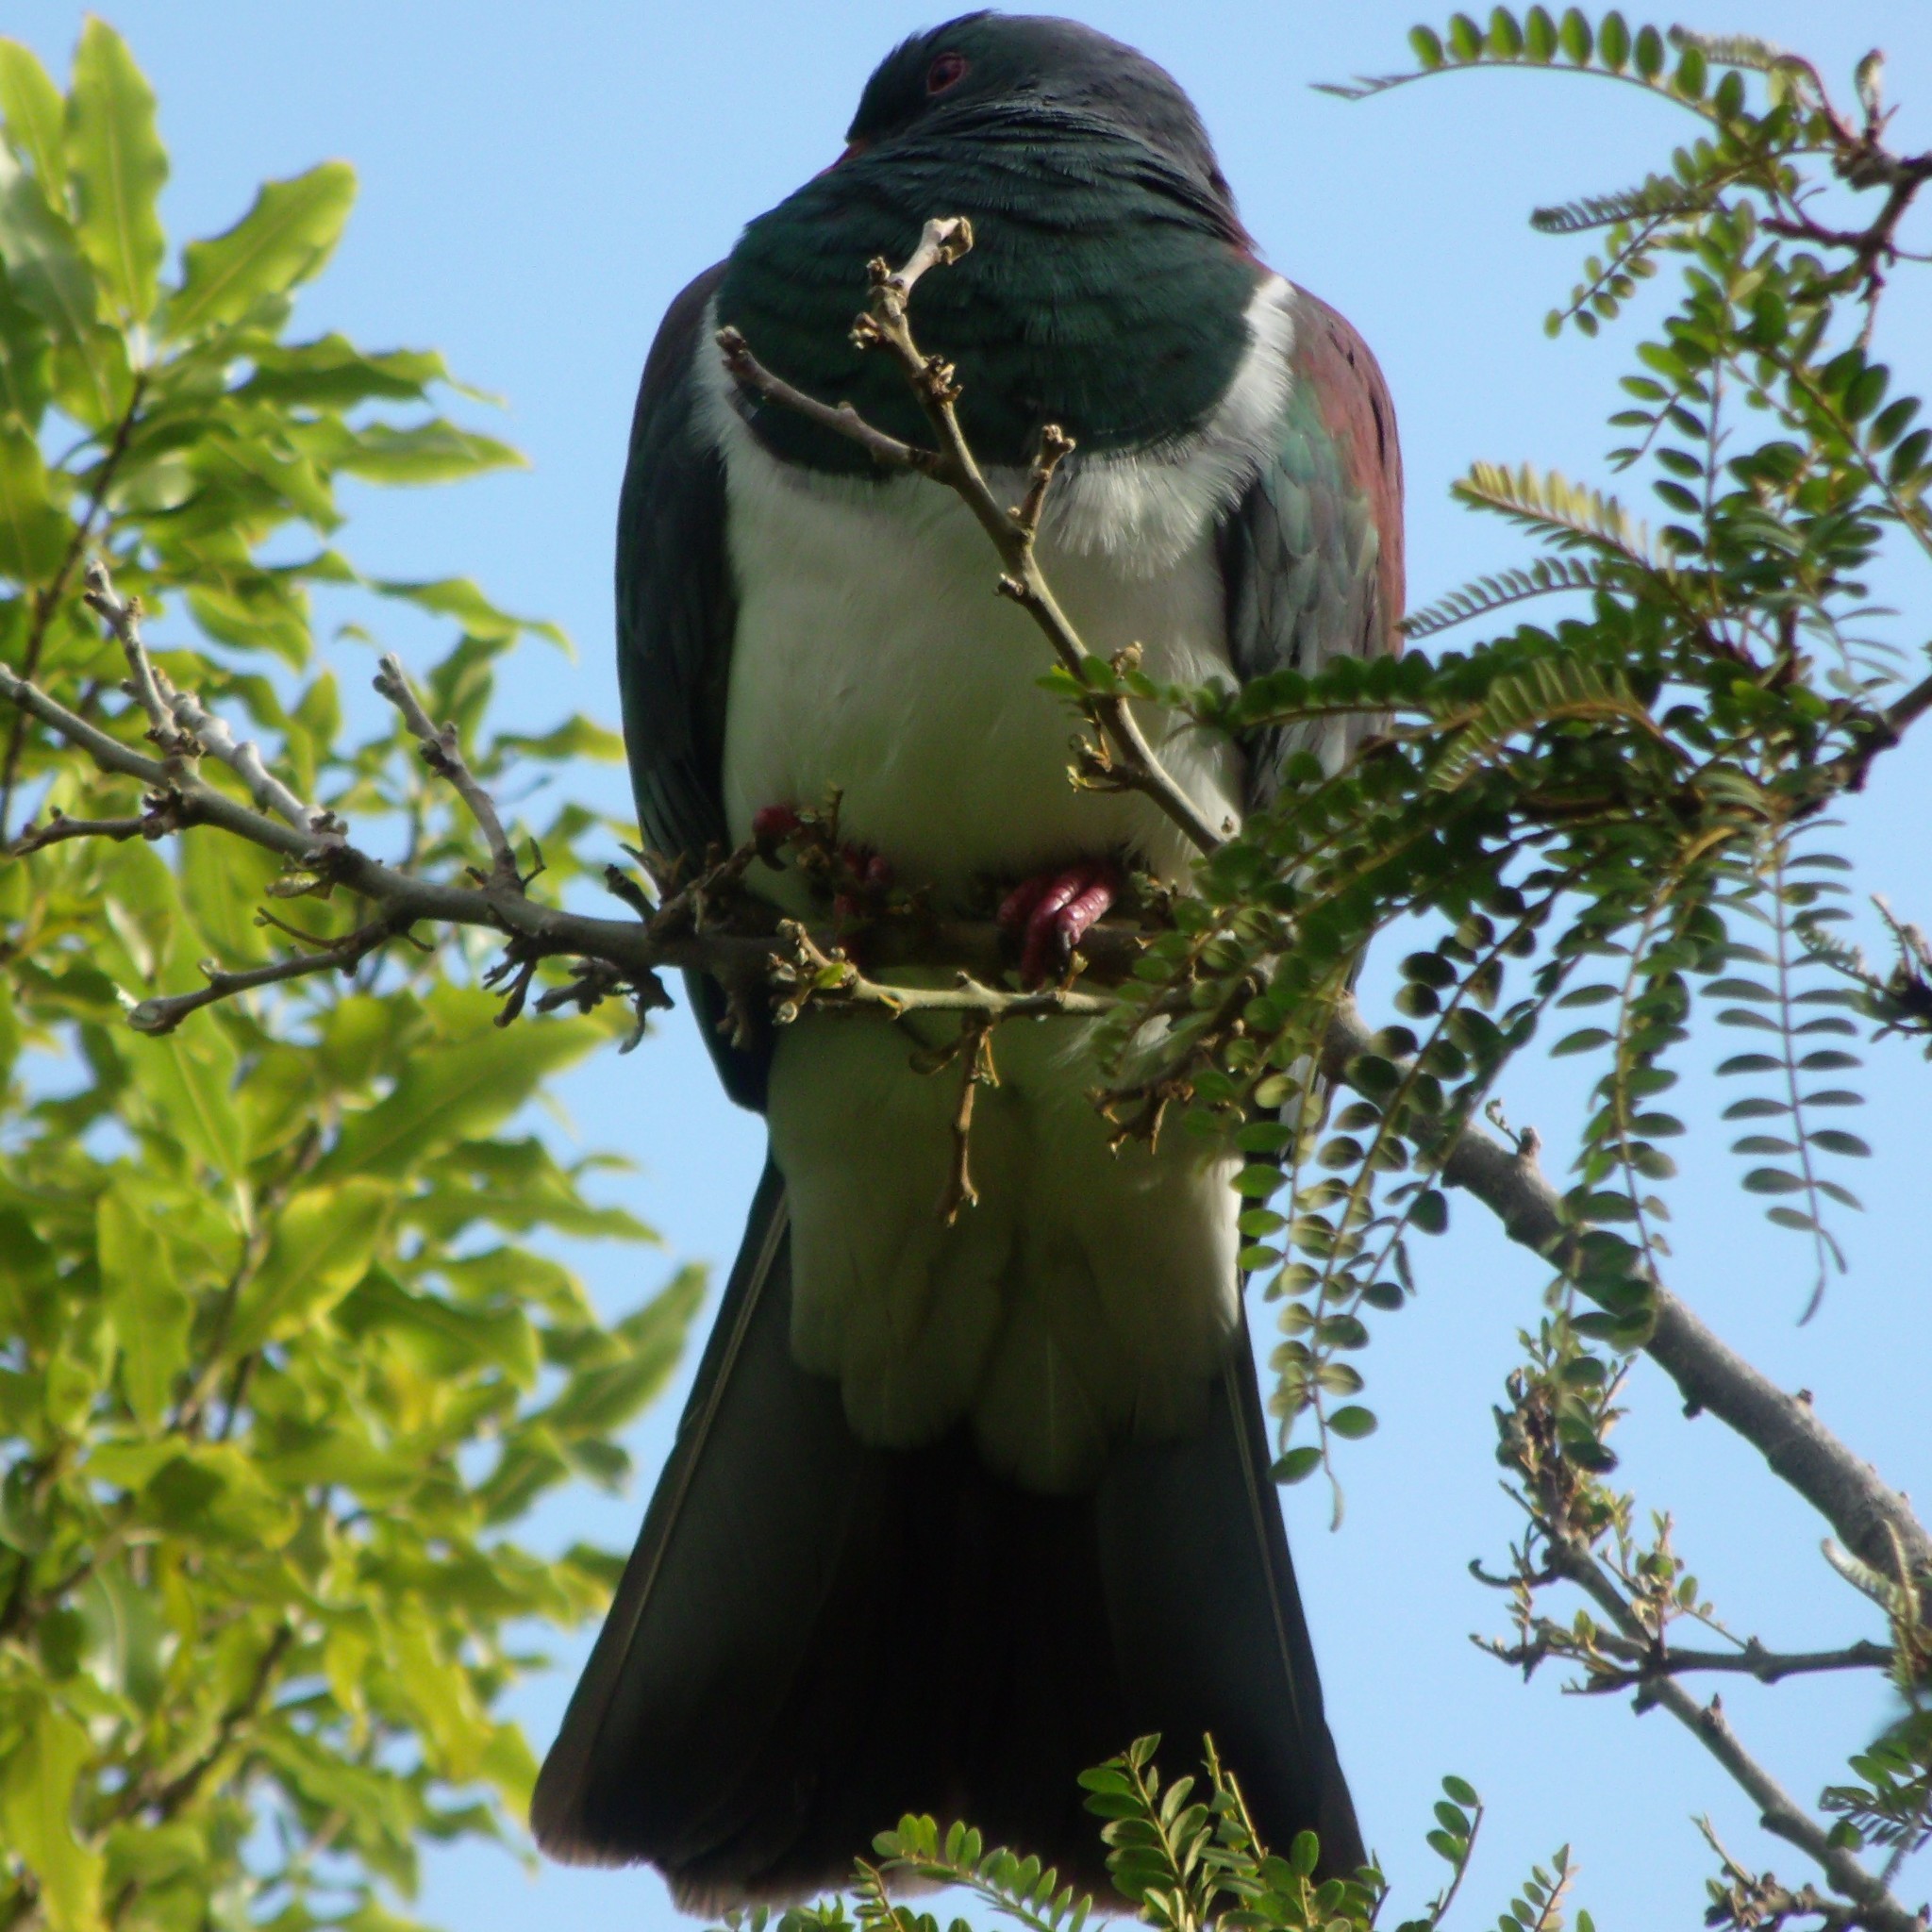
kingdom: Animalia
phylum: Chordata
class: Aves
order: Columbiformes
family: Columbidae
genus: Hemiphaga
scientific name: Hemiphaga novaeseelandiae
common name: New zealand pigeon
